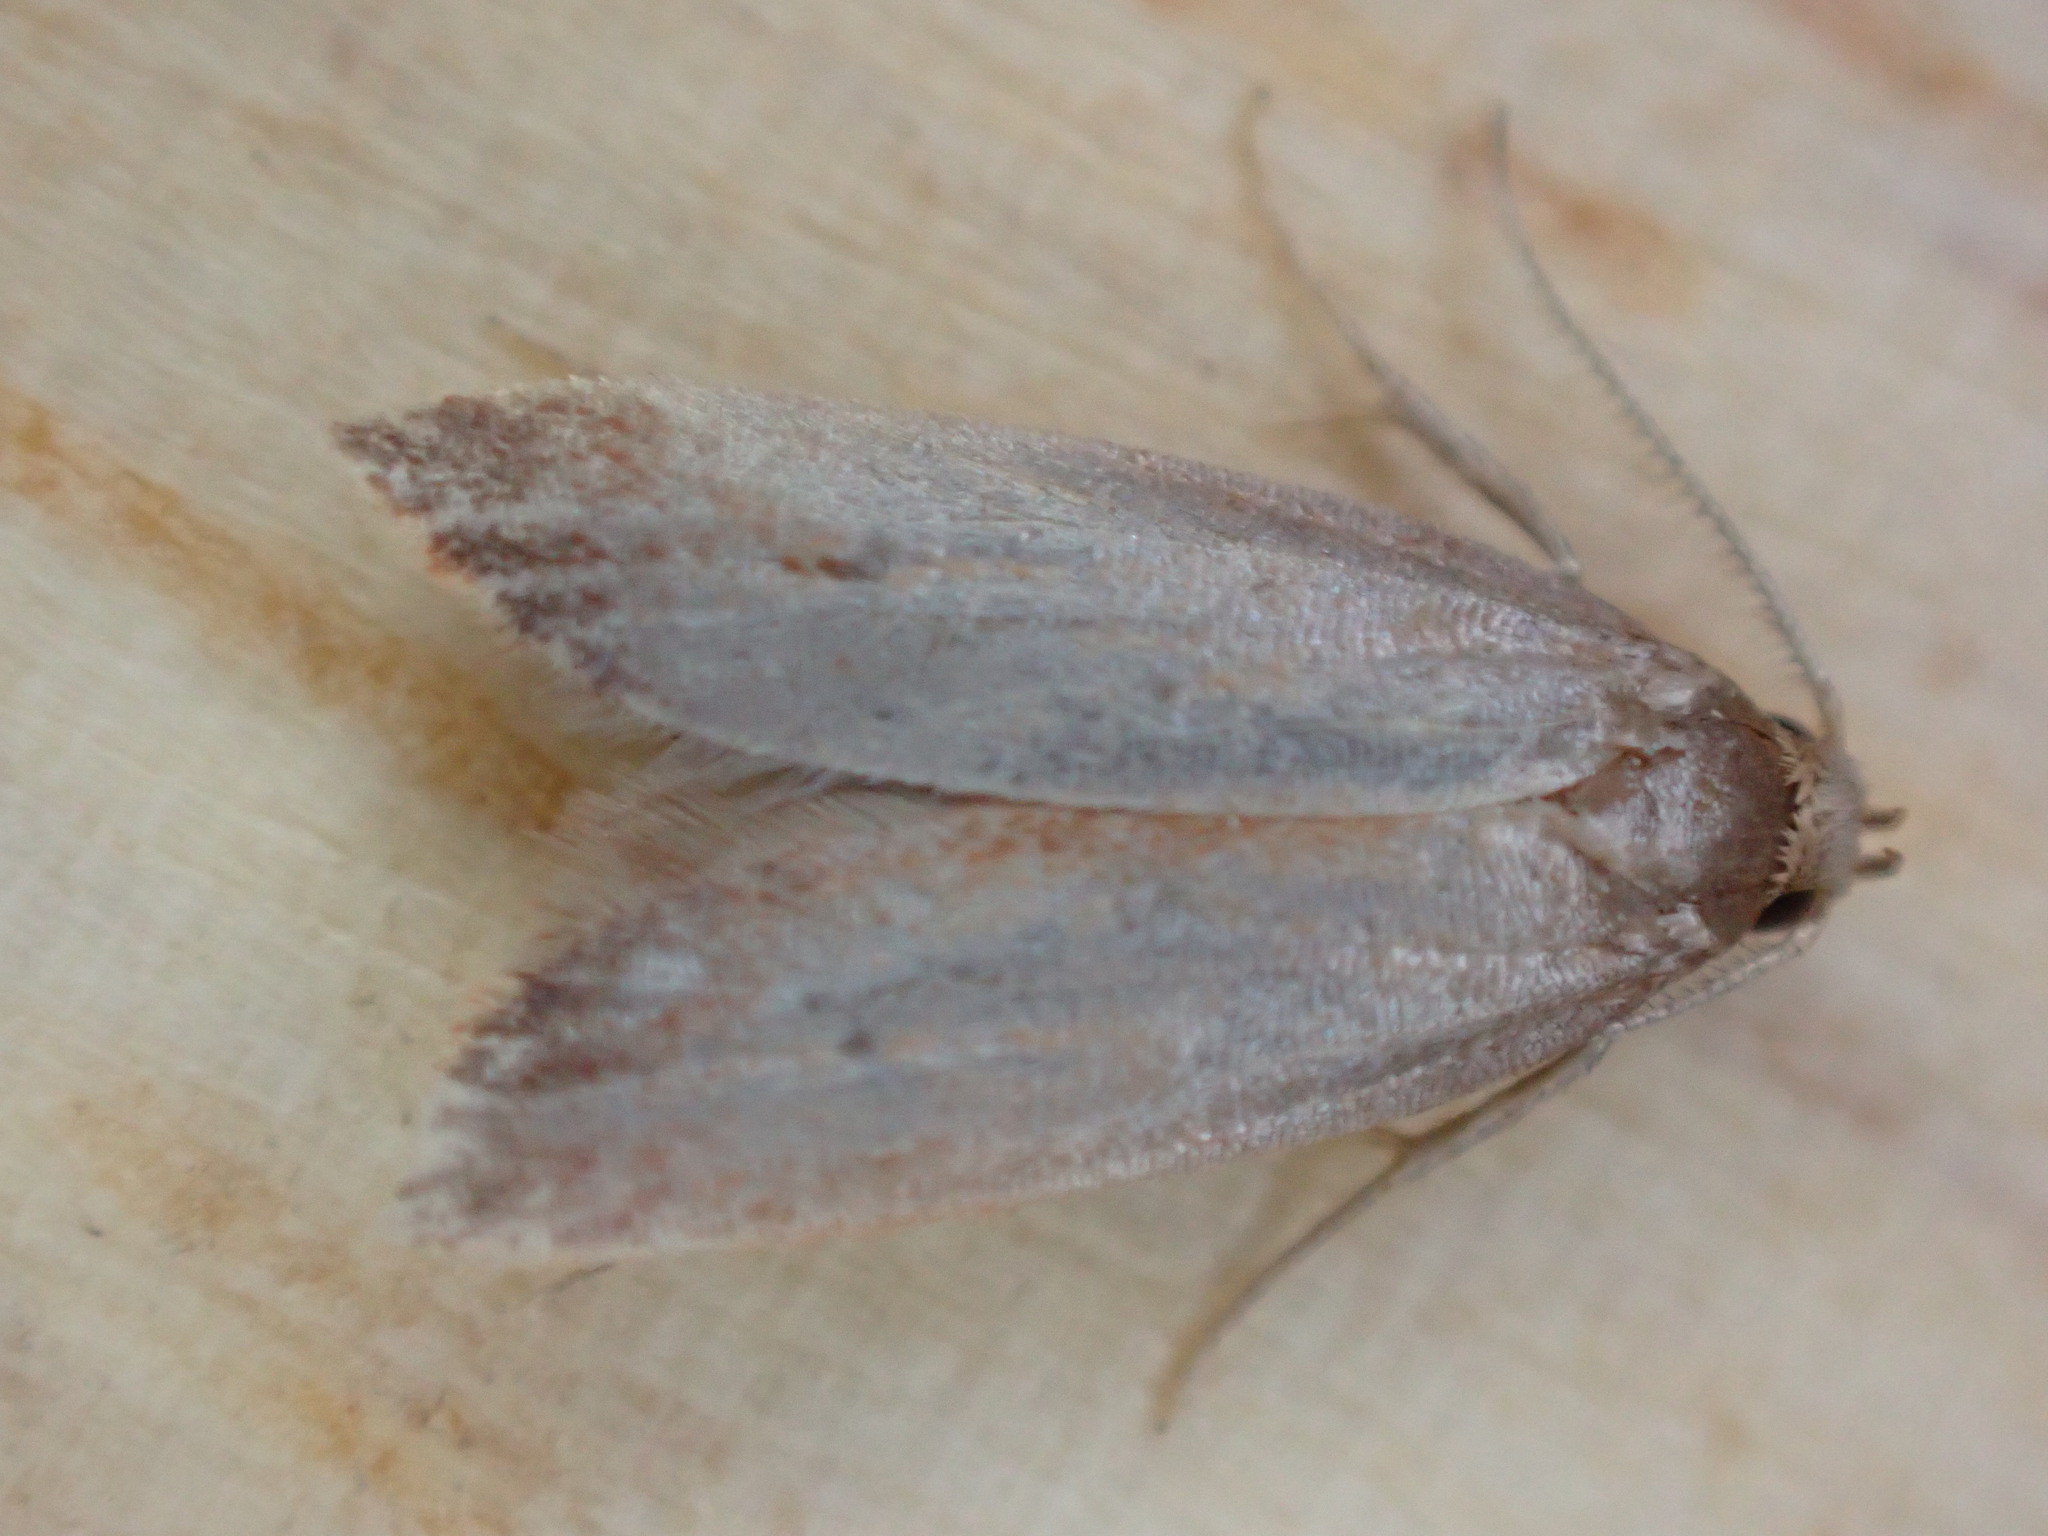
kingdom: Animalia
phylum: Arthropoda
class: Insecta
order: Lepidoptera
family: Oecophoridae
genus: Tachystola
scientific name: Tachystola acroxantha
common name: Ruddy streak
